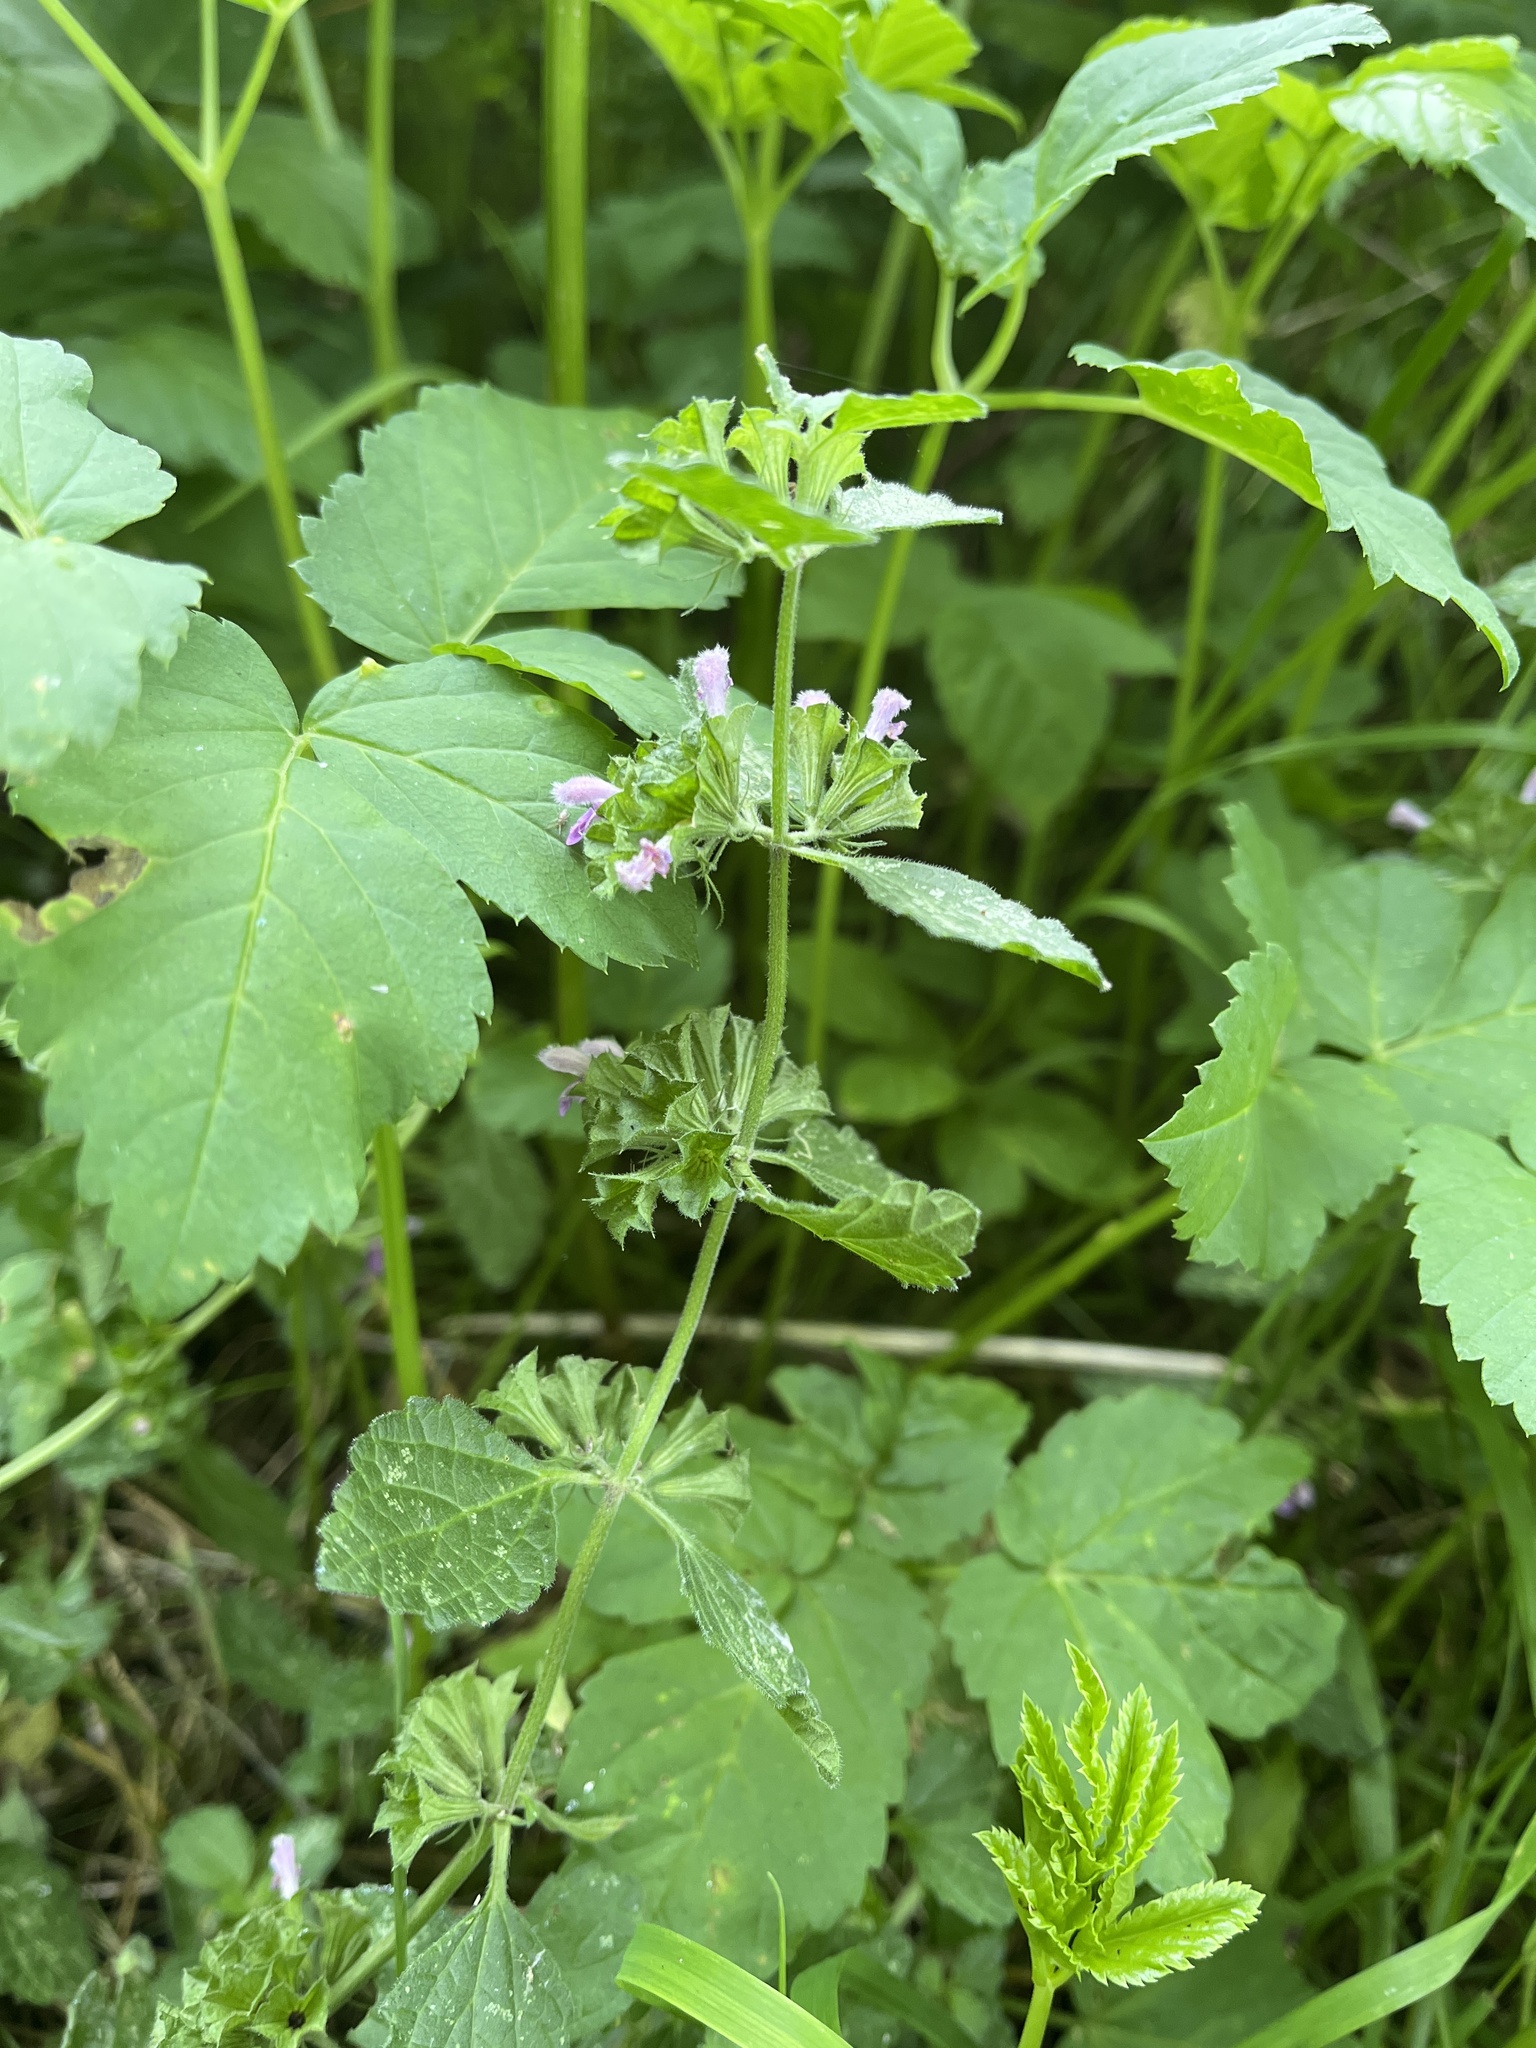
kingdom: Plantae
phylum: Tracheophyta
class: Magnoliopsida
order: Lamiales
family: Lamiaceae
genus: Ballota
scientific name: Ballota nigra
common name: Black horehound
